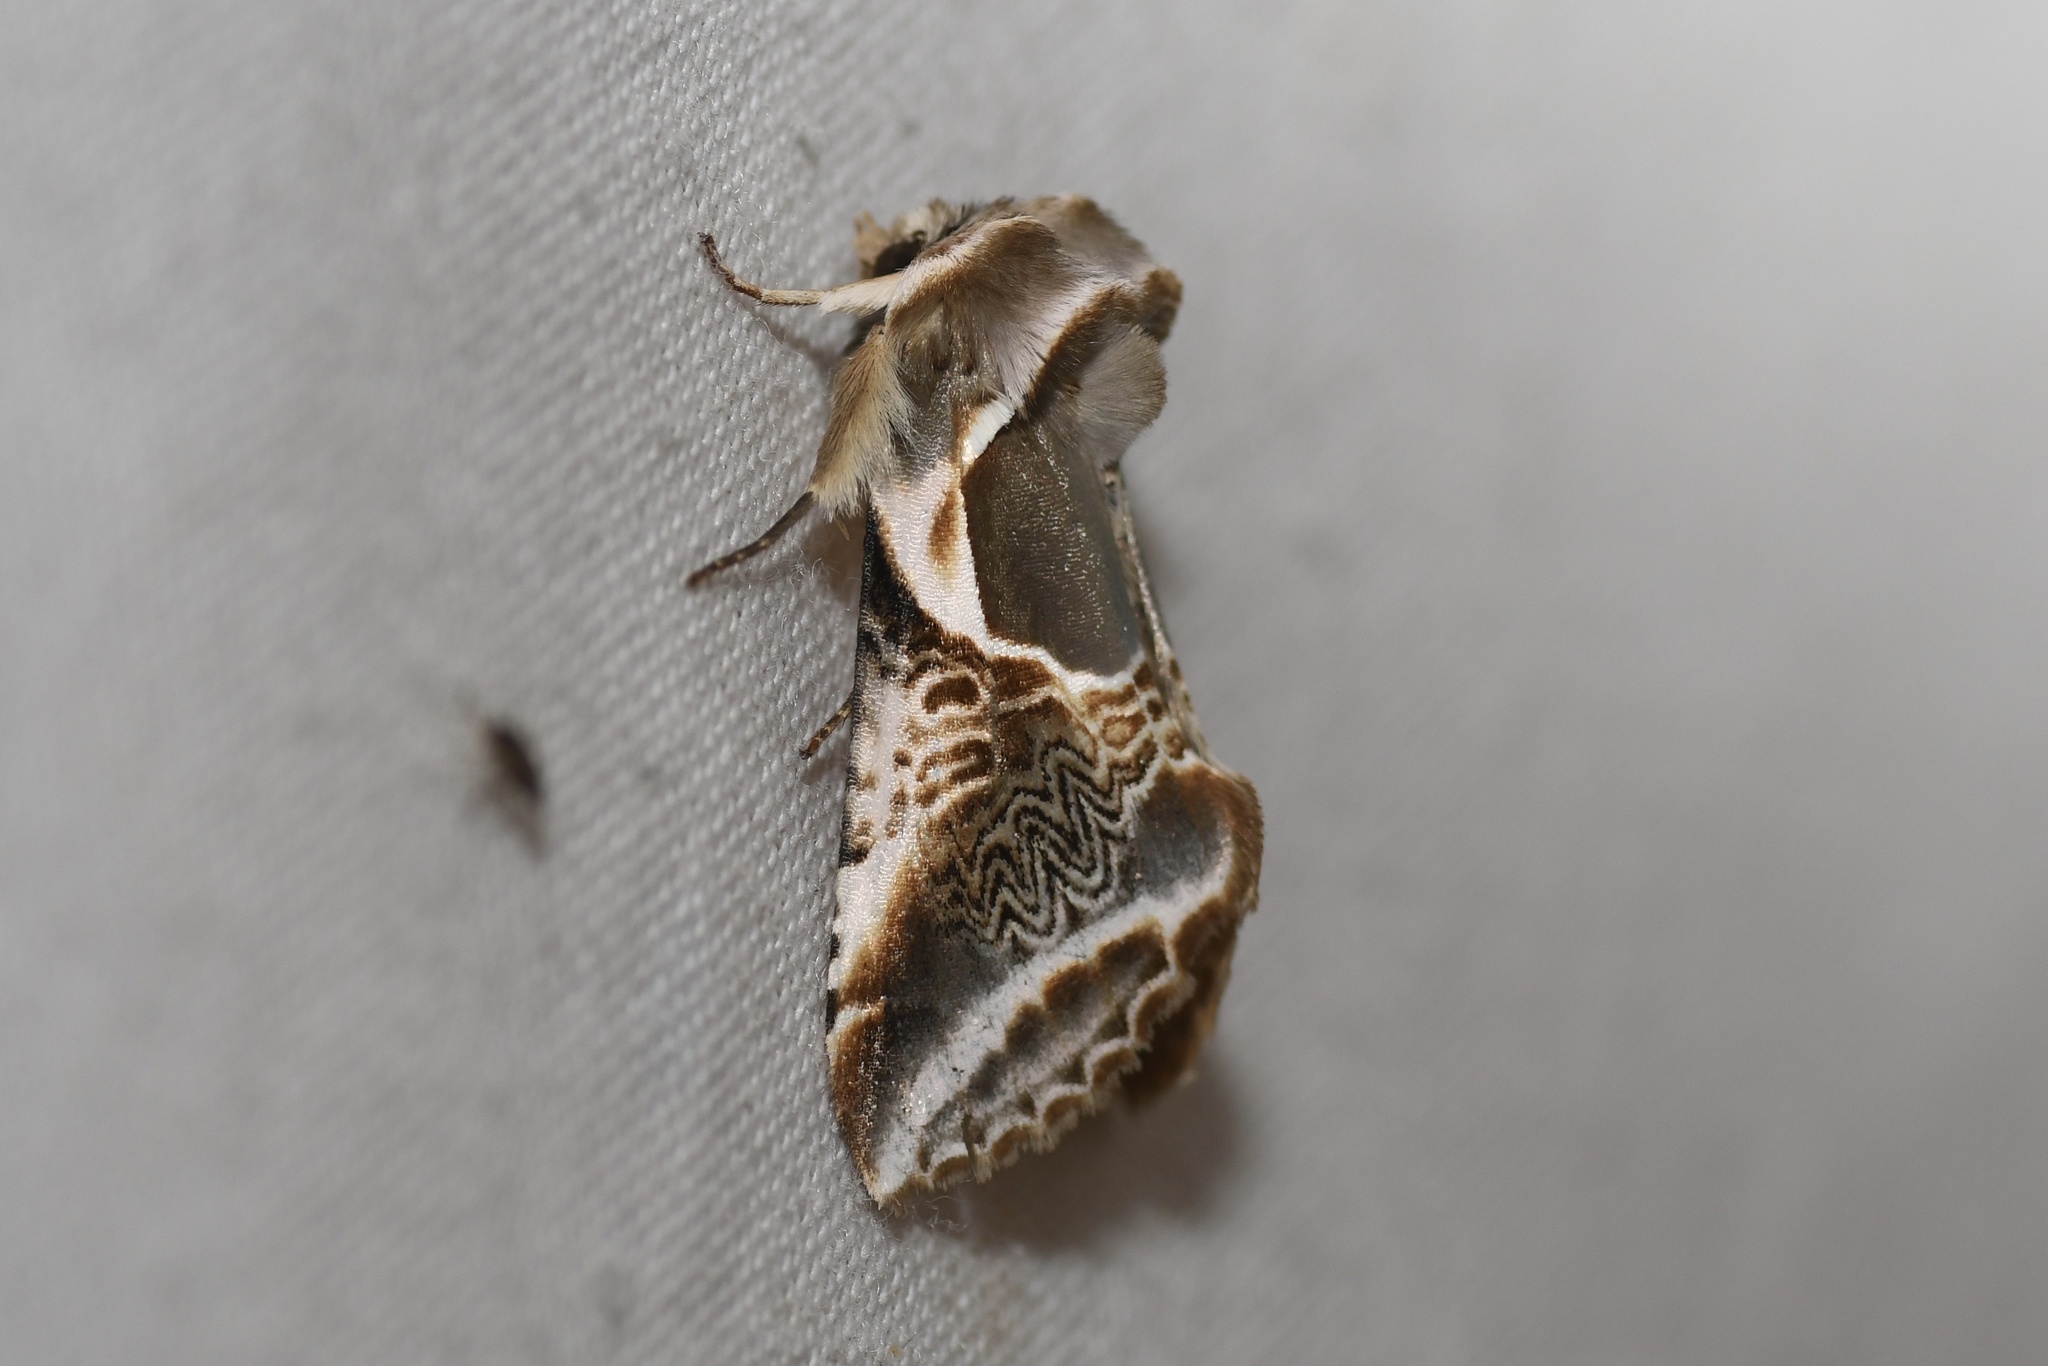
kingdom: Animalia
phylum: Arthropoda
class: Insecta
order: Lepidoptera
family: Drepanidae
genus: Habrosyne
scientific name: Habrosyne scripta
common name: Lettered habrosyne moth
